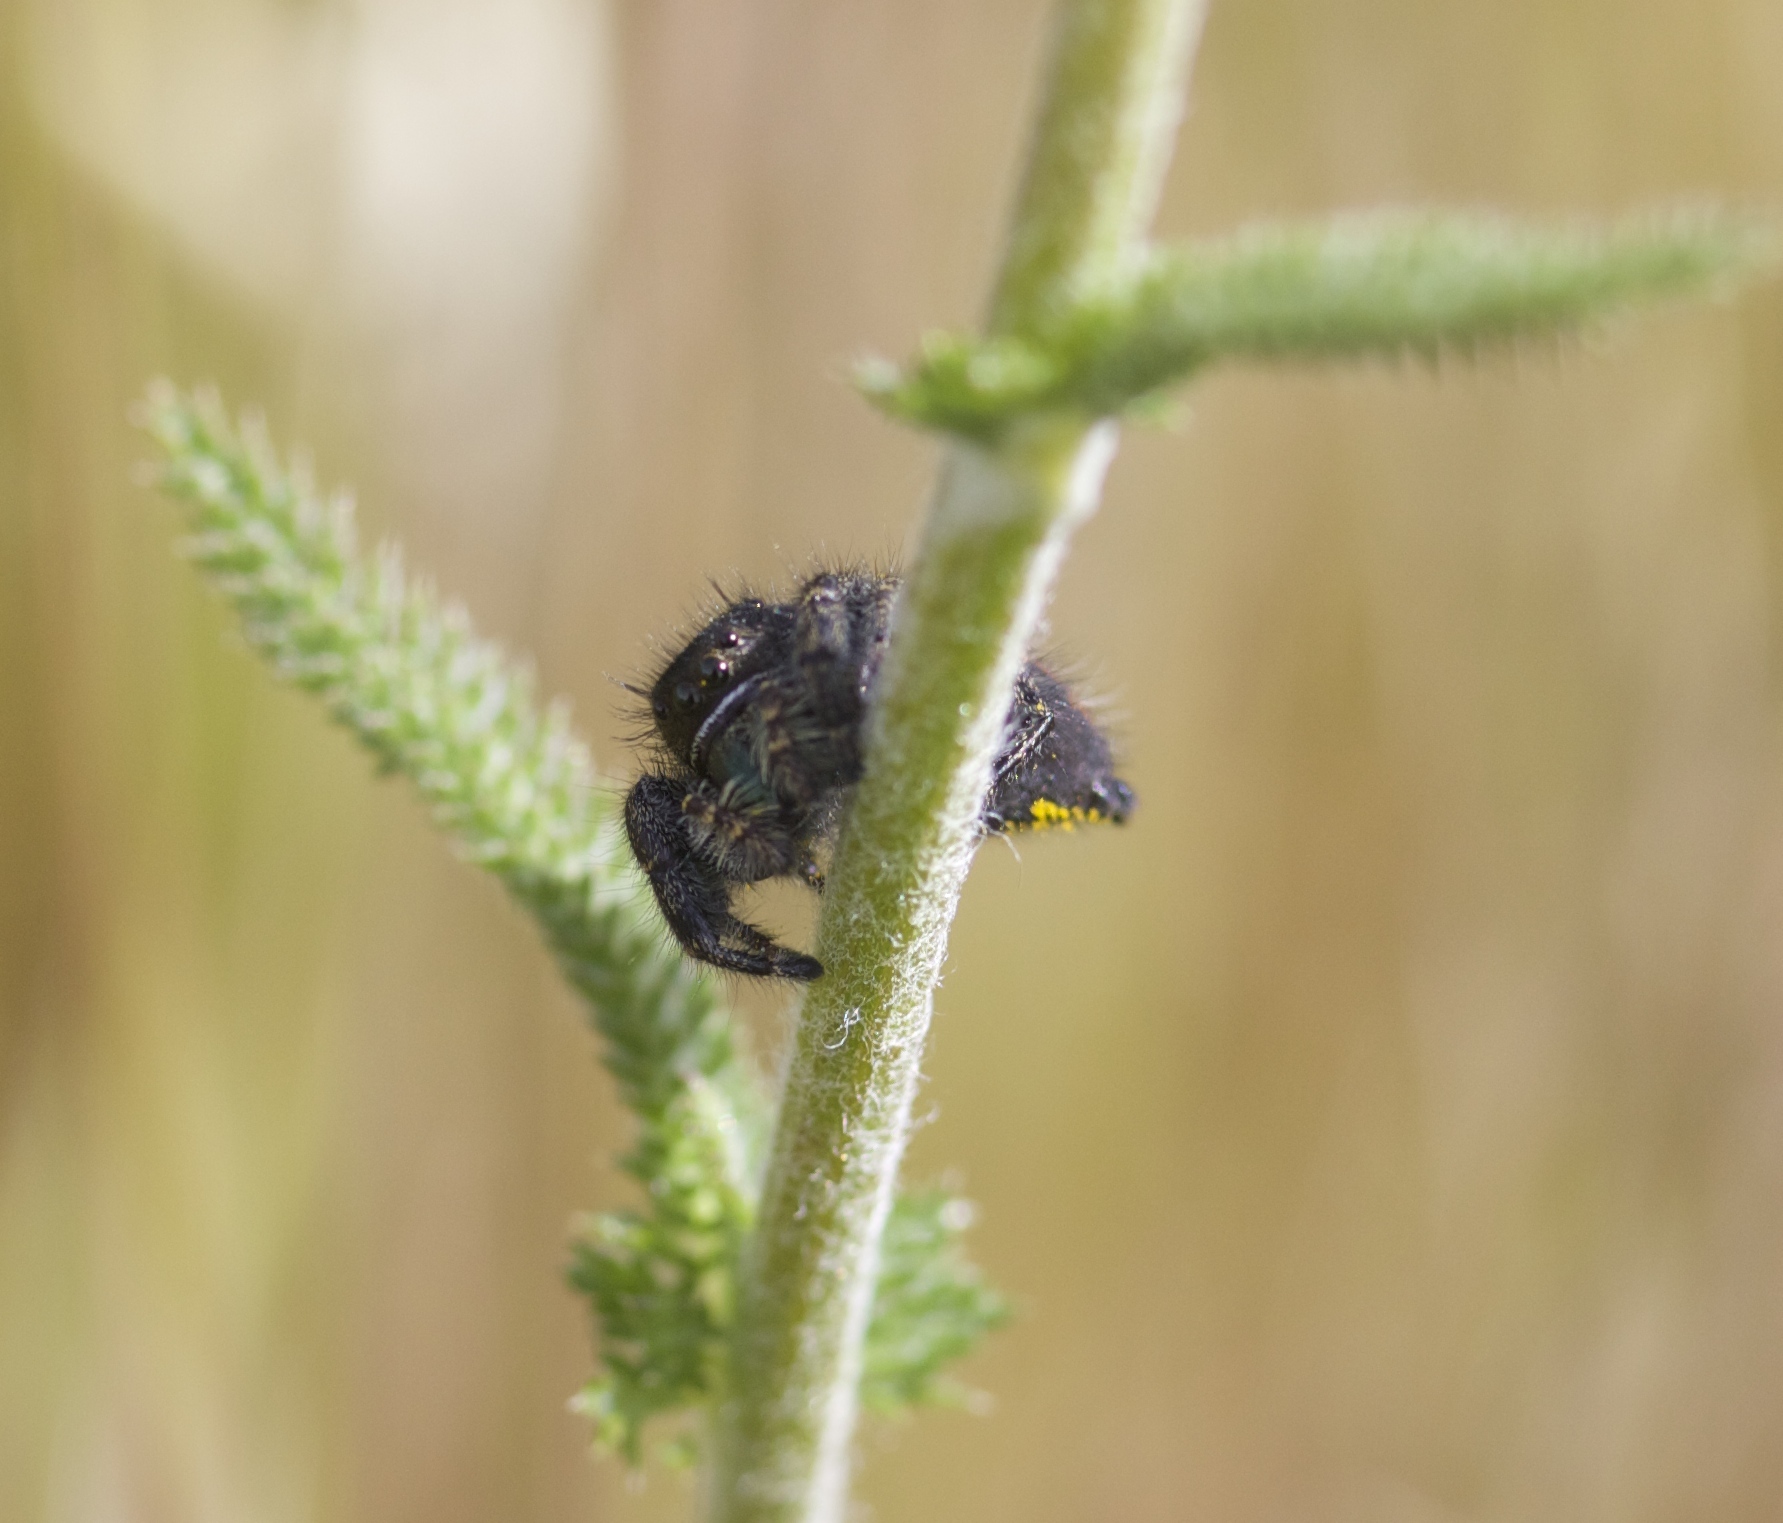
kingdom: Animalia
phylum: Arthropoda
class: Arachnida
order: Araneae
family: Salticidae
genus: Phidippus
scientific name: Phidippus johnsoni
